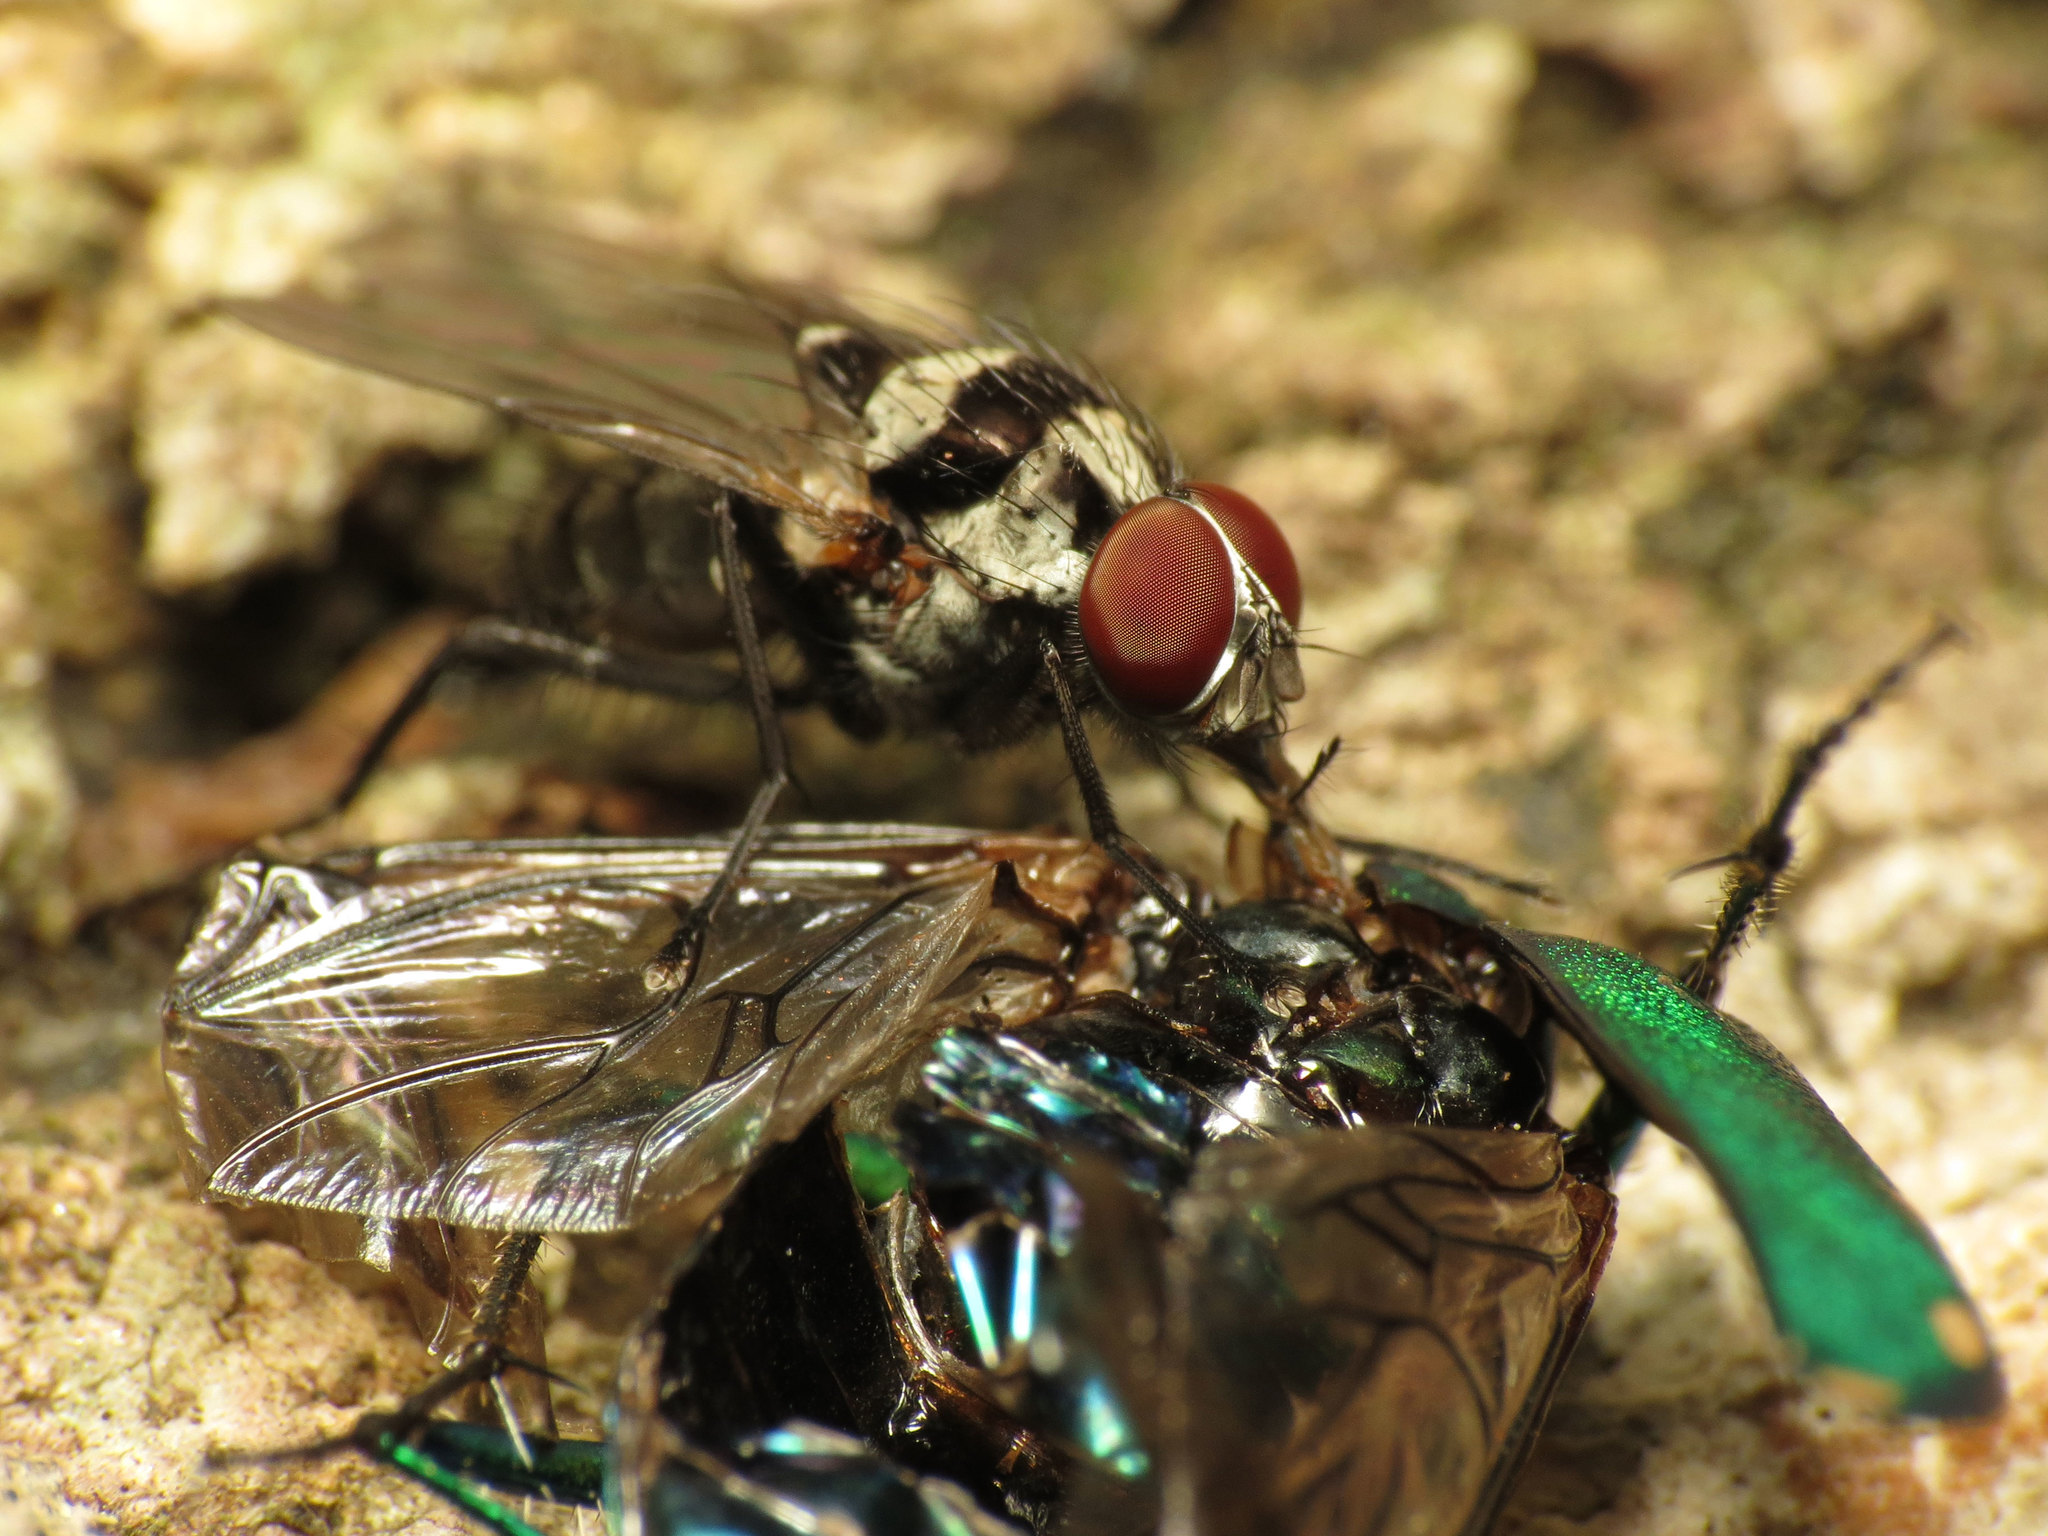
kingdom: Animalia
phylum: Arthropoda
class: Insecta
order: Diptera
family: Anthomyiidae
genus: Anthomyia
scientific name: Anthomyia oculifera
